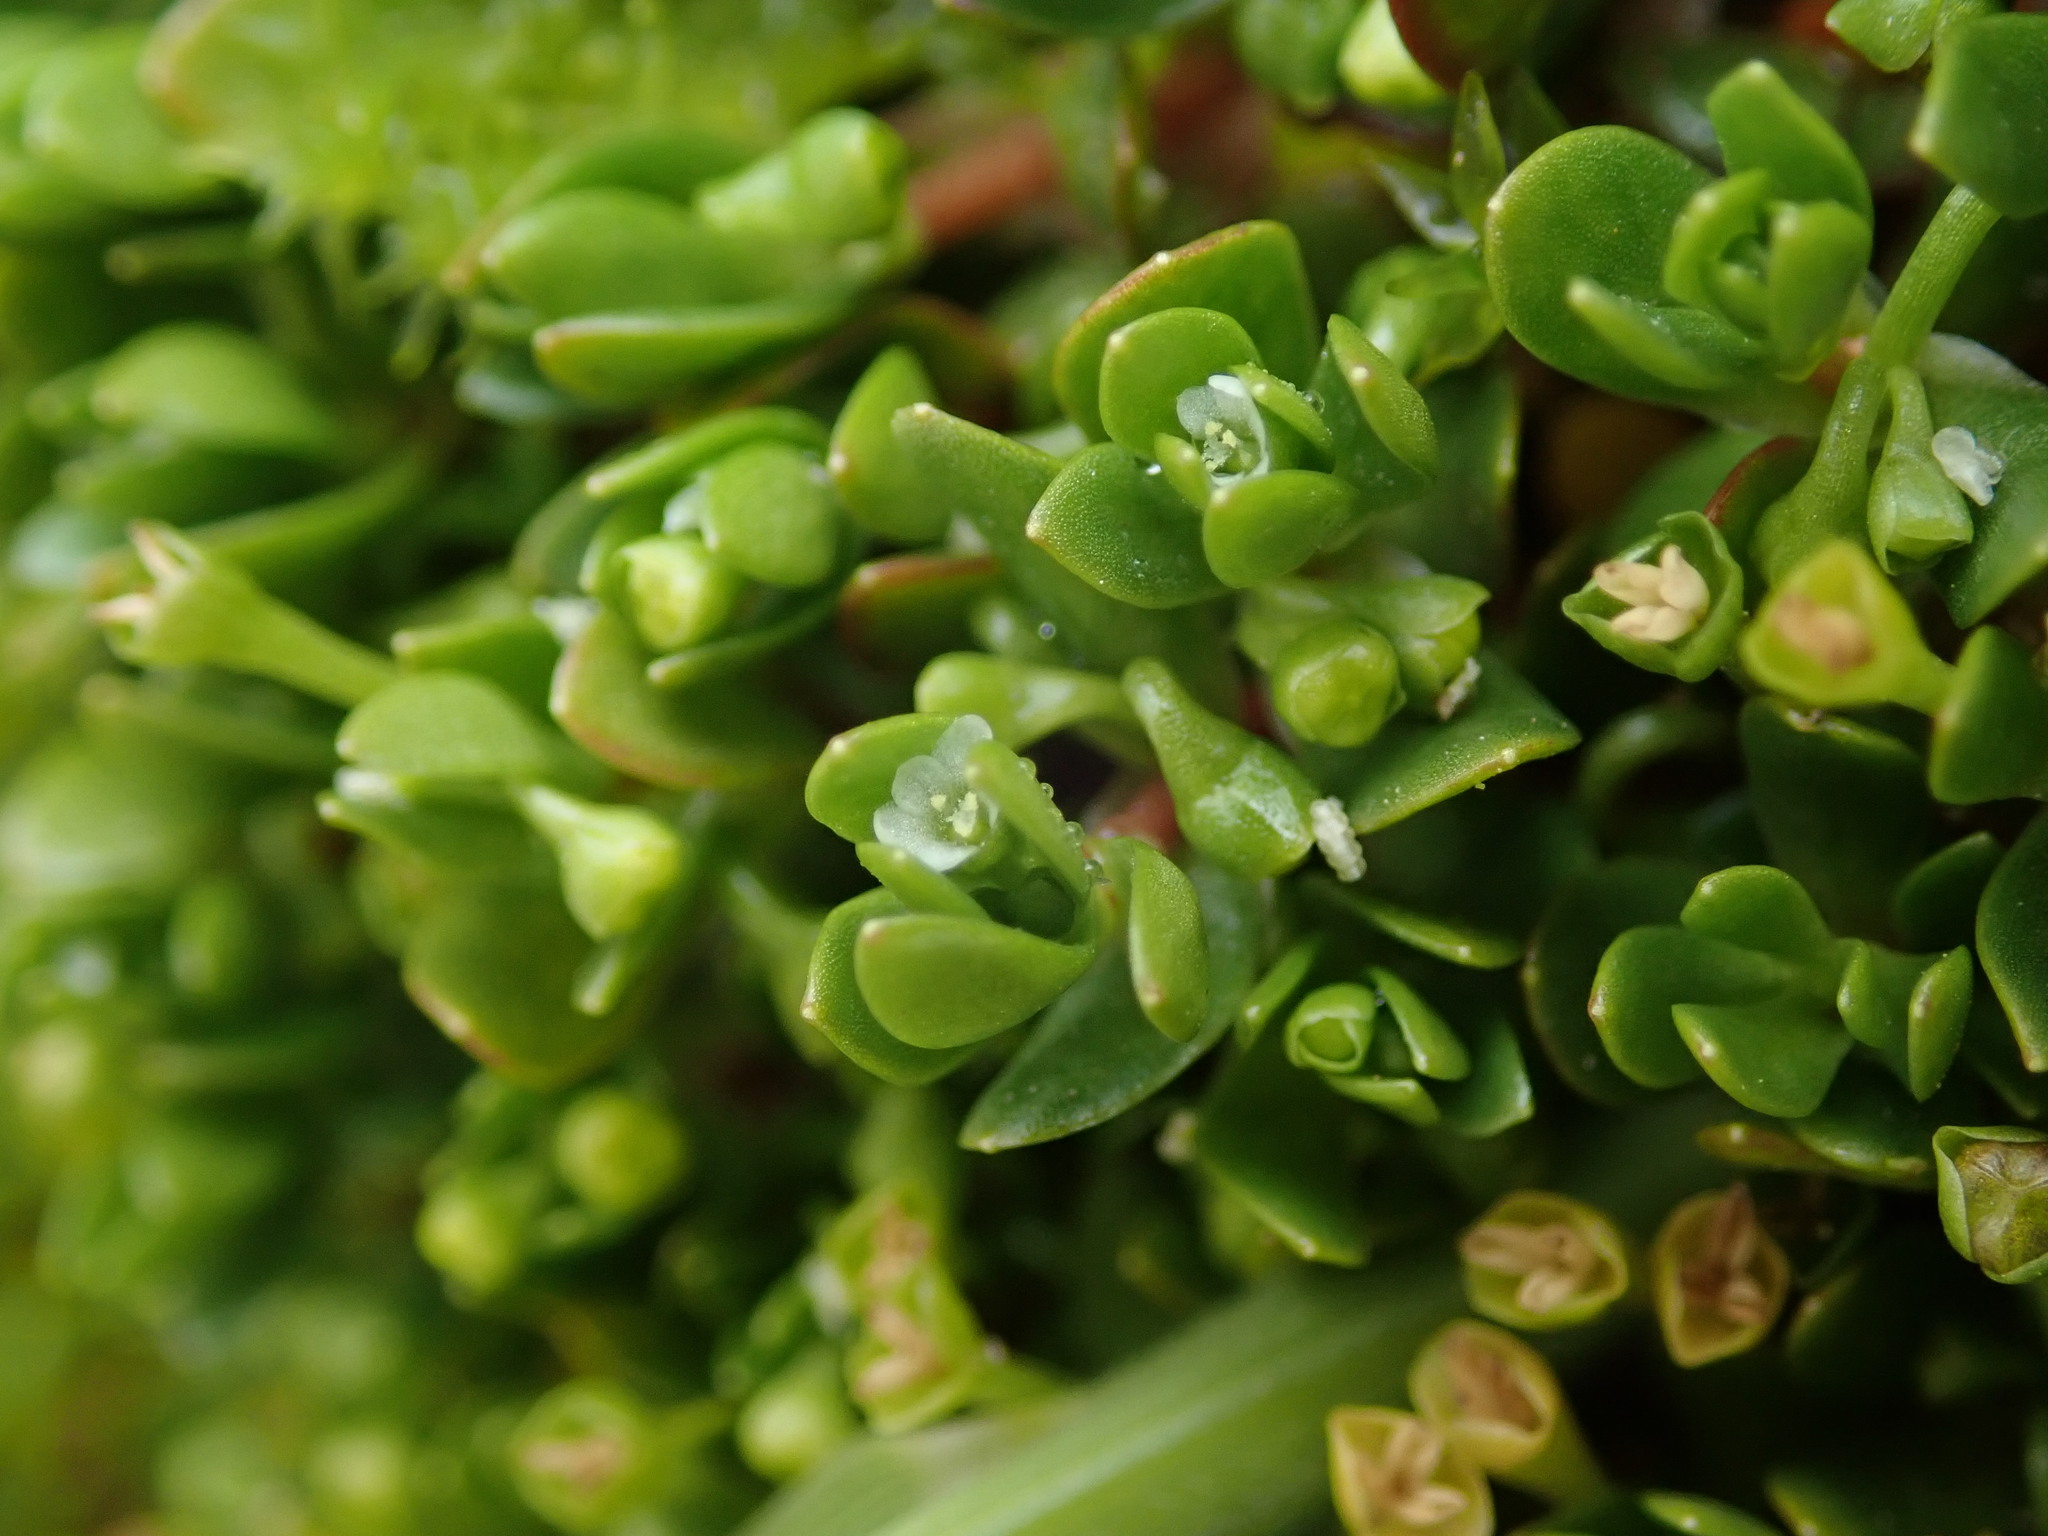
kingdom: Plantae
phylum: Tracheophyta
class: Magnoliopsida
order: Caryophyllales
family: Montiaceae
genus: Montia
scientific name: Montia fontana
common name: Blinks
